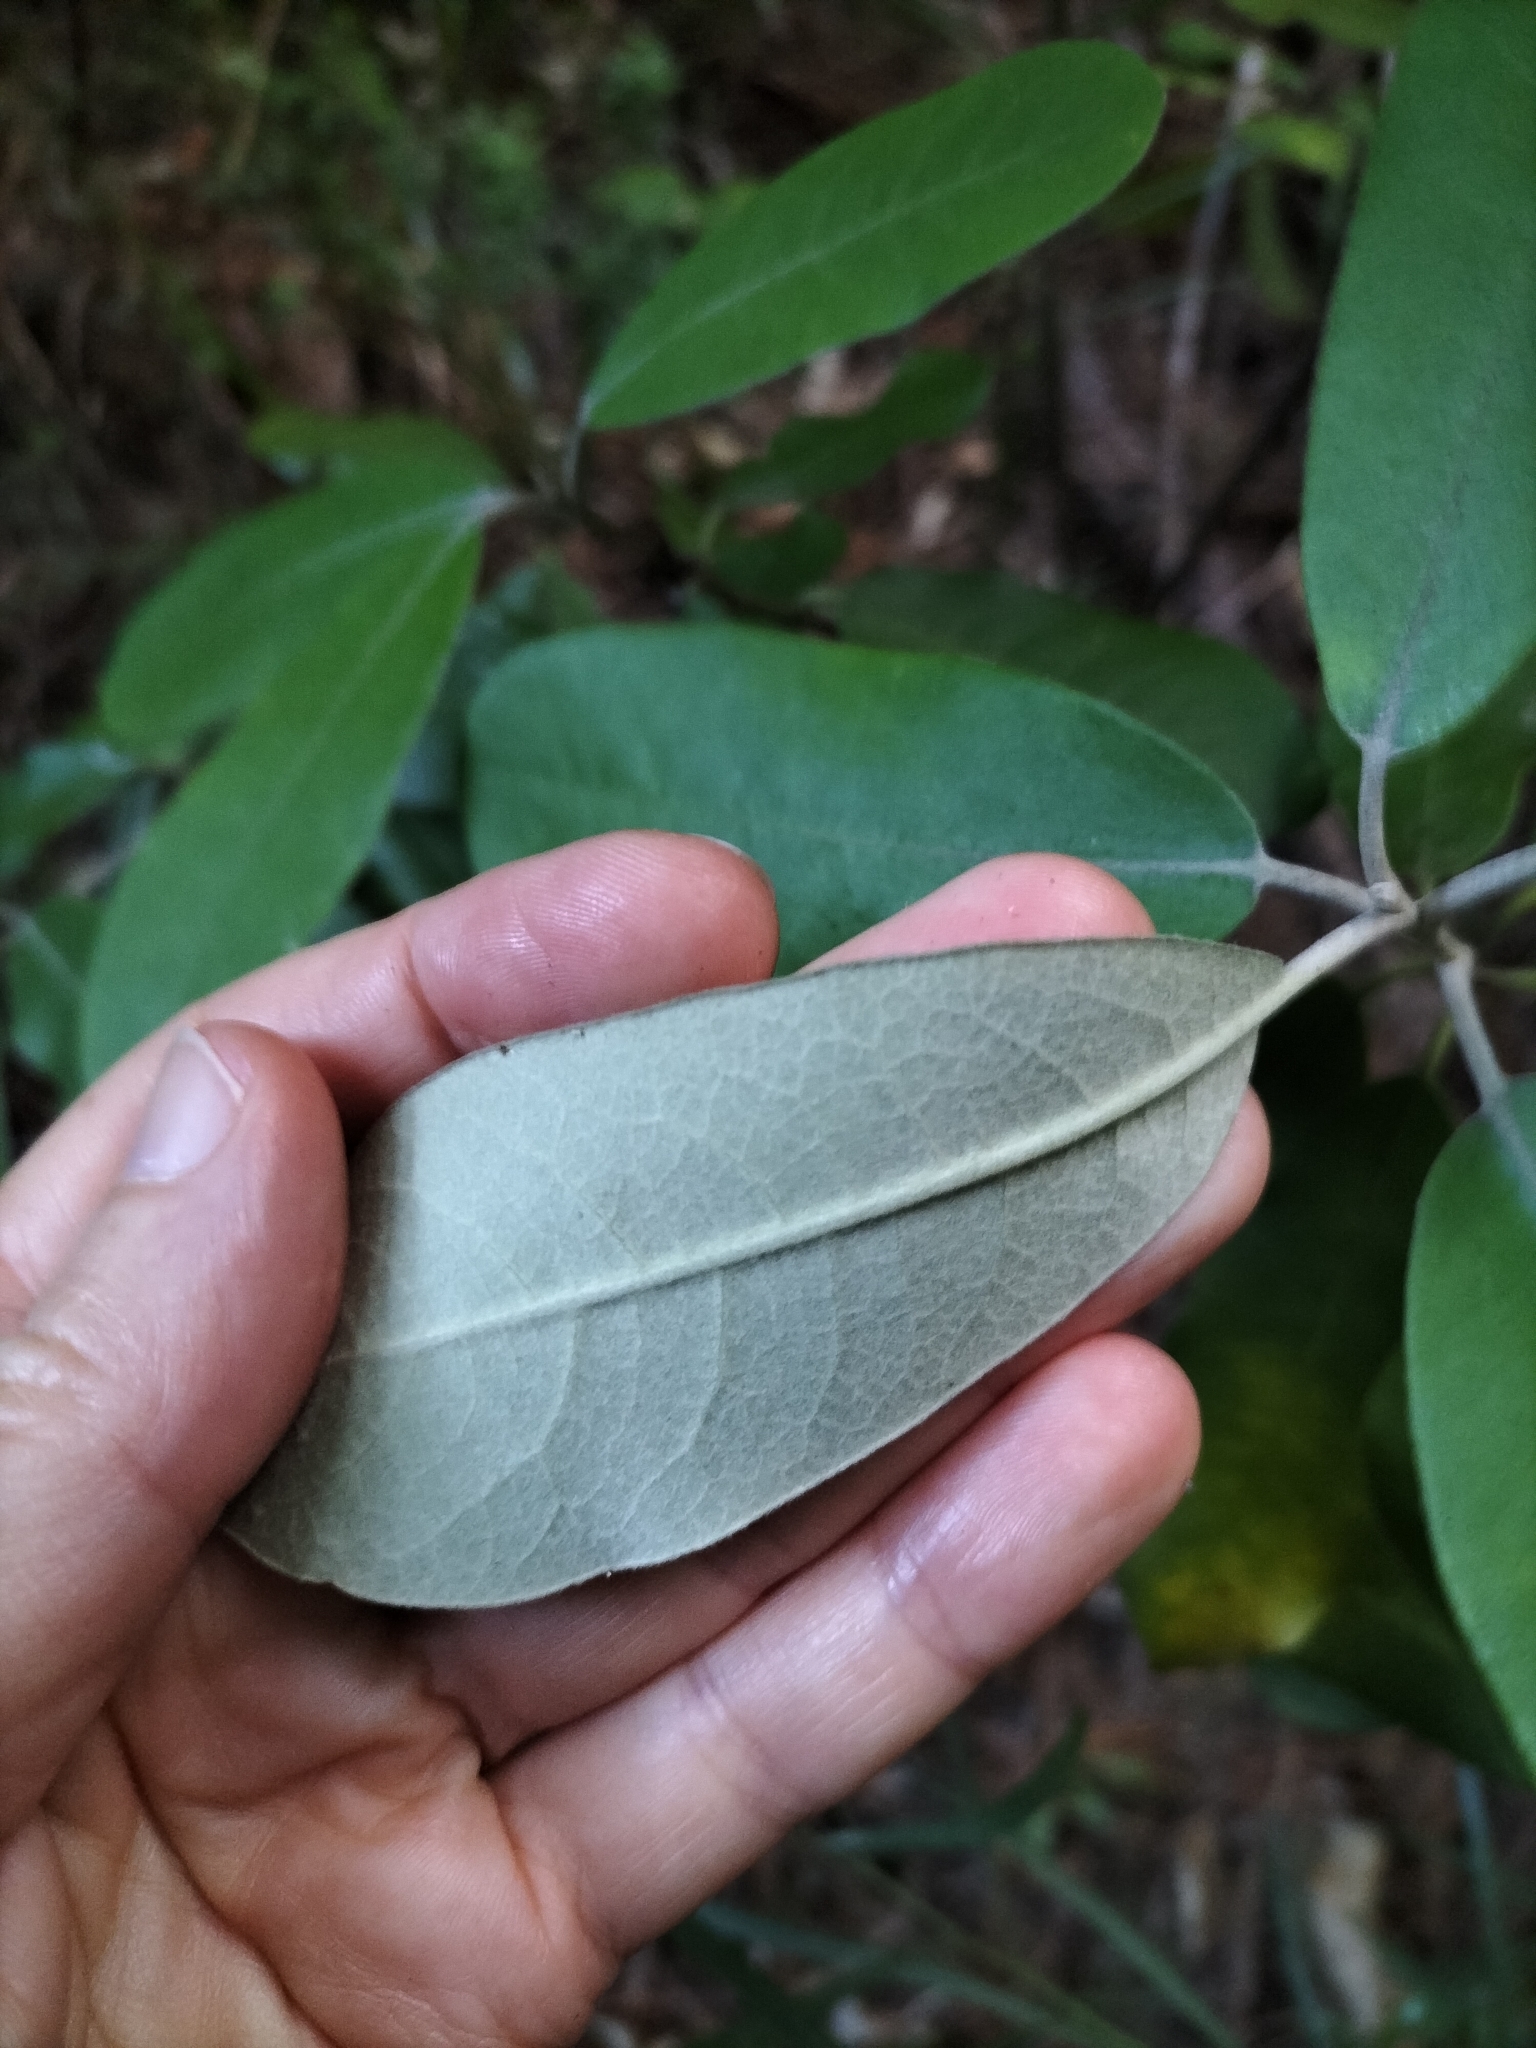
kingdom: Plantae
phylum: Tracheophyta
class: Magnoliopsida
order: Apiales
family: Pittosporaceae
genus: Pittosporum
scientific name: Pittosporum ralphii
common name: Ralph's desertwillow
